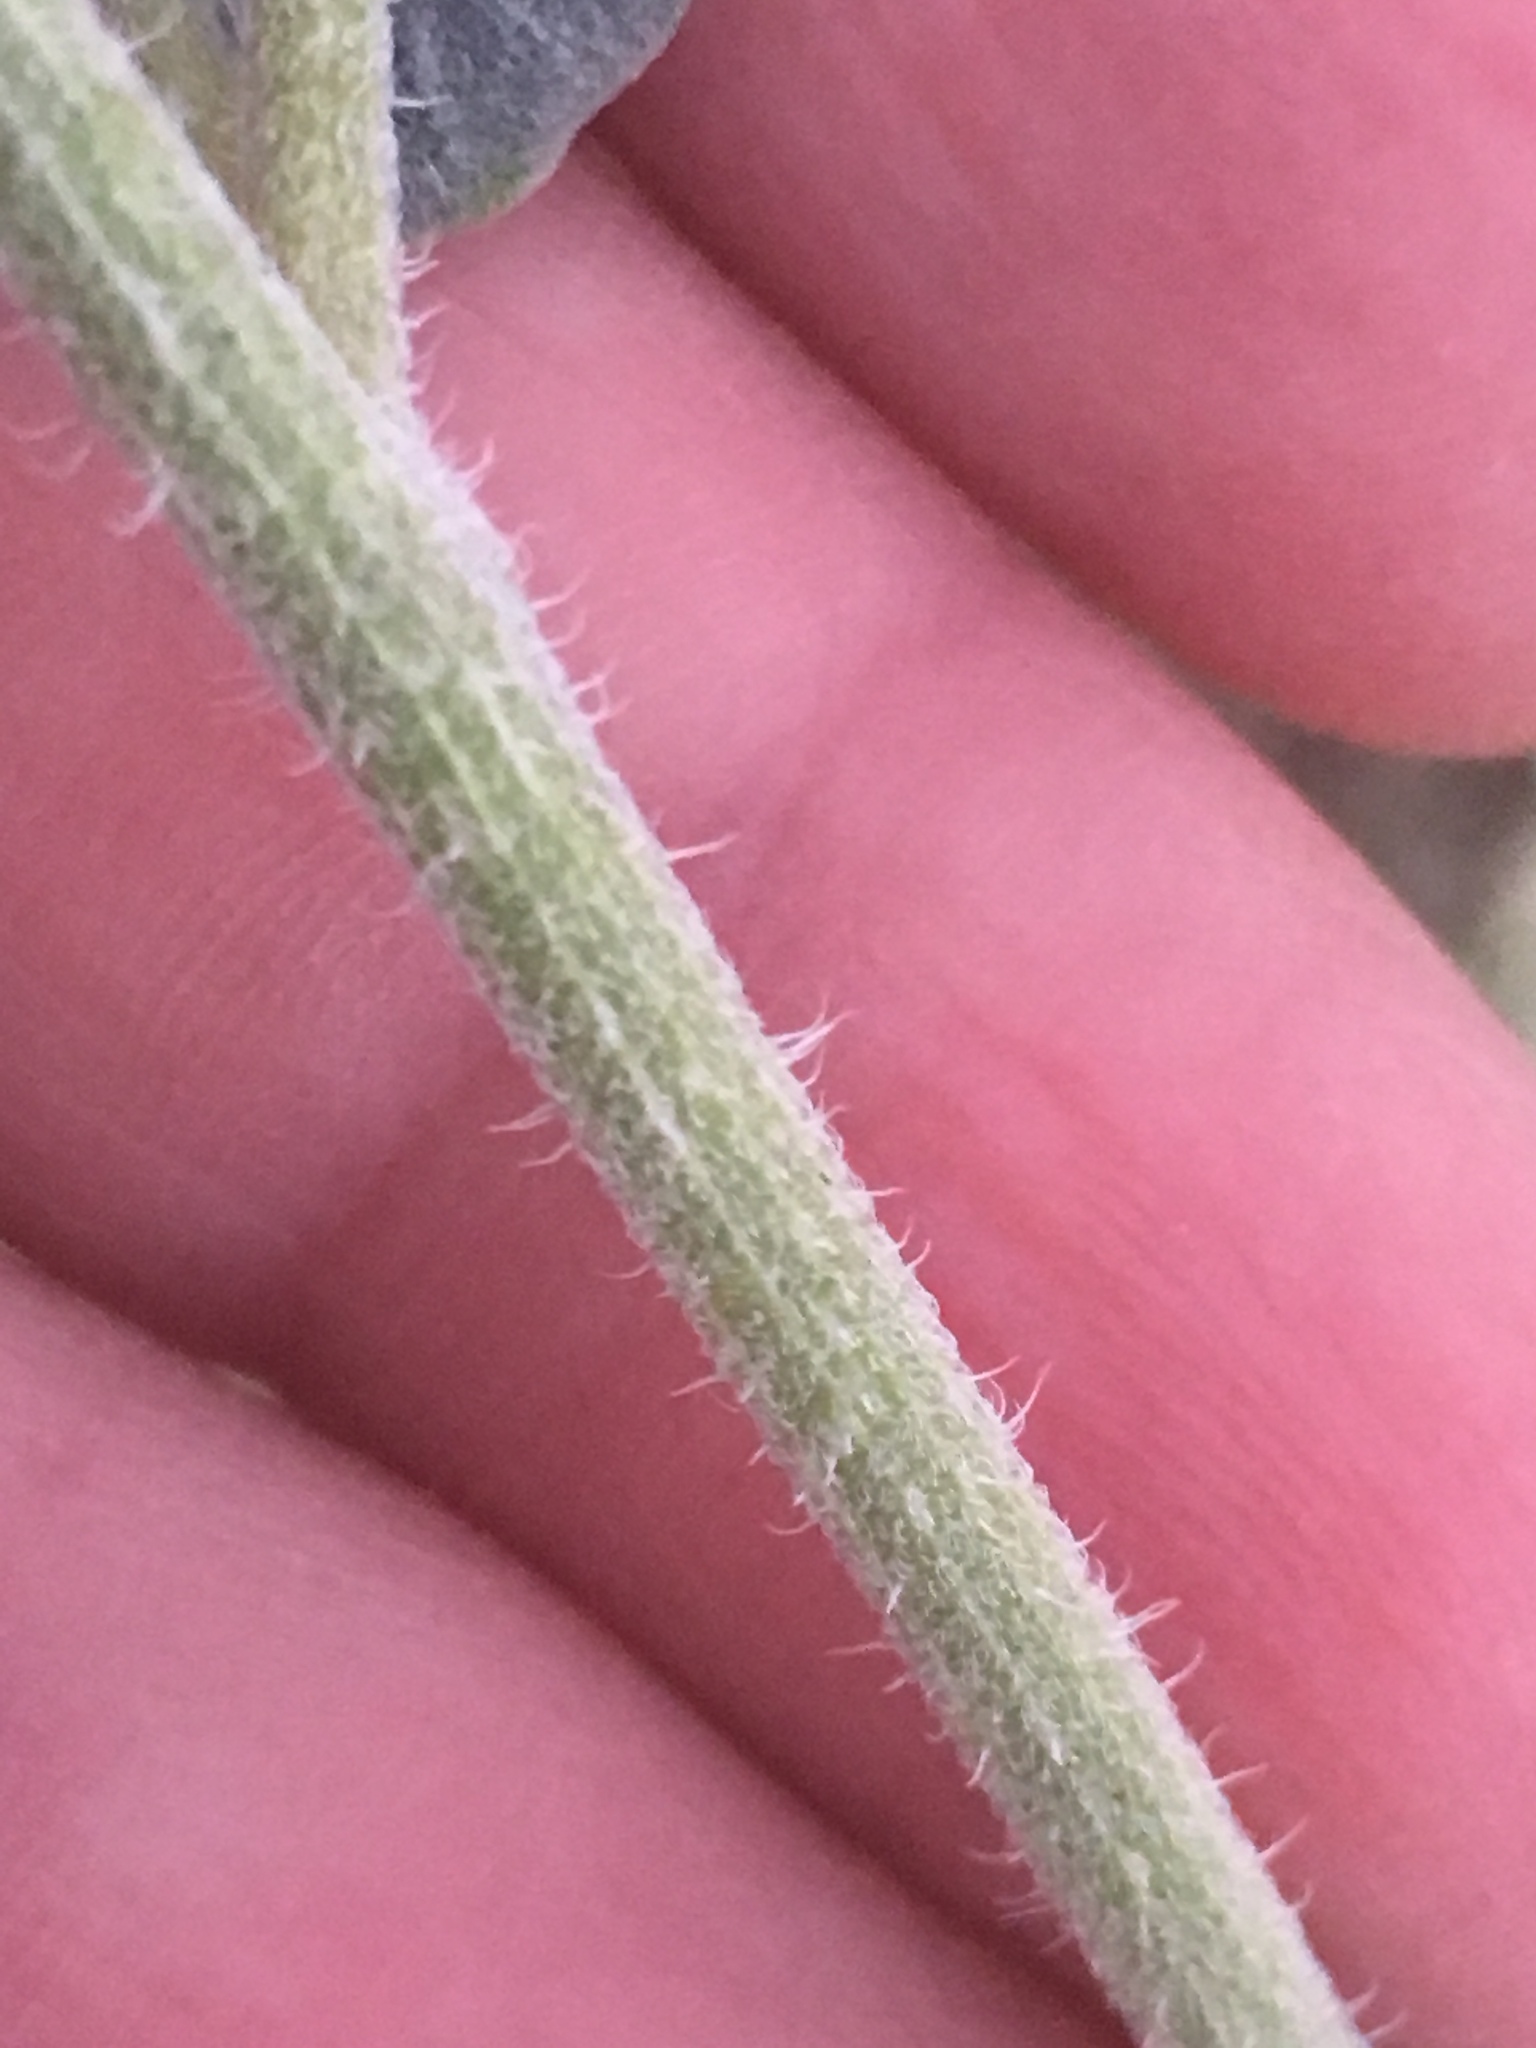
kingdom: Plantae
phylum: Tracheophyta
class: Magnoliopsida
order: Asterales
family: Asteraceae
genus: Dicoria
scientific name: Dicoria canescens
